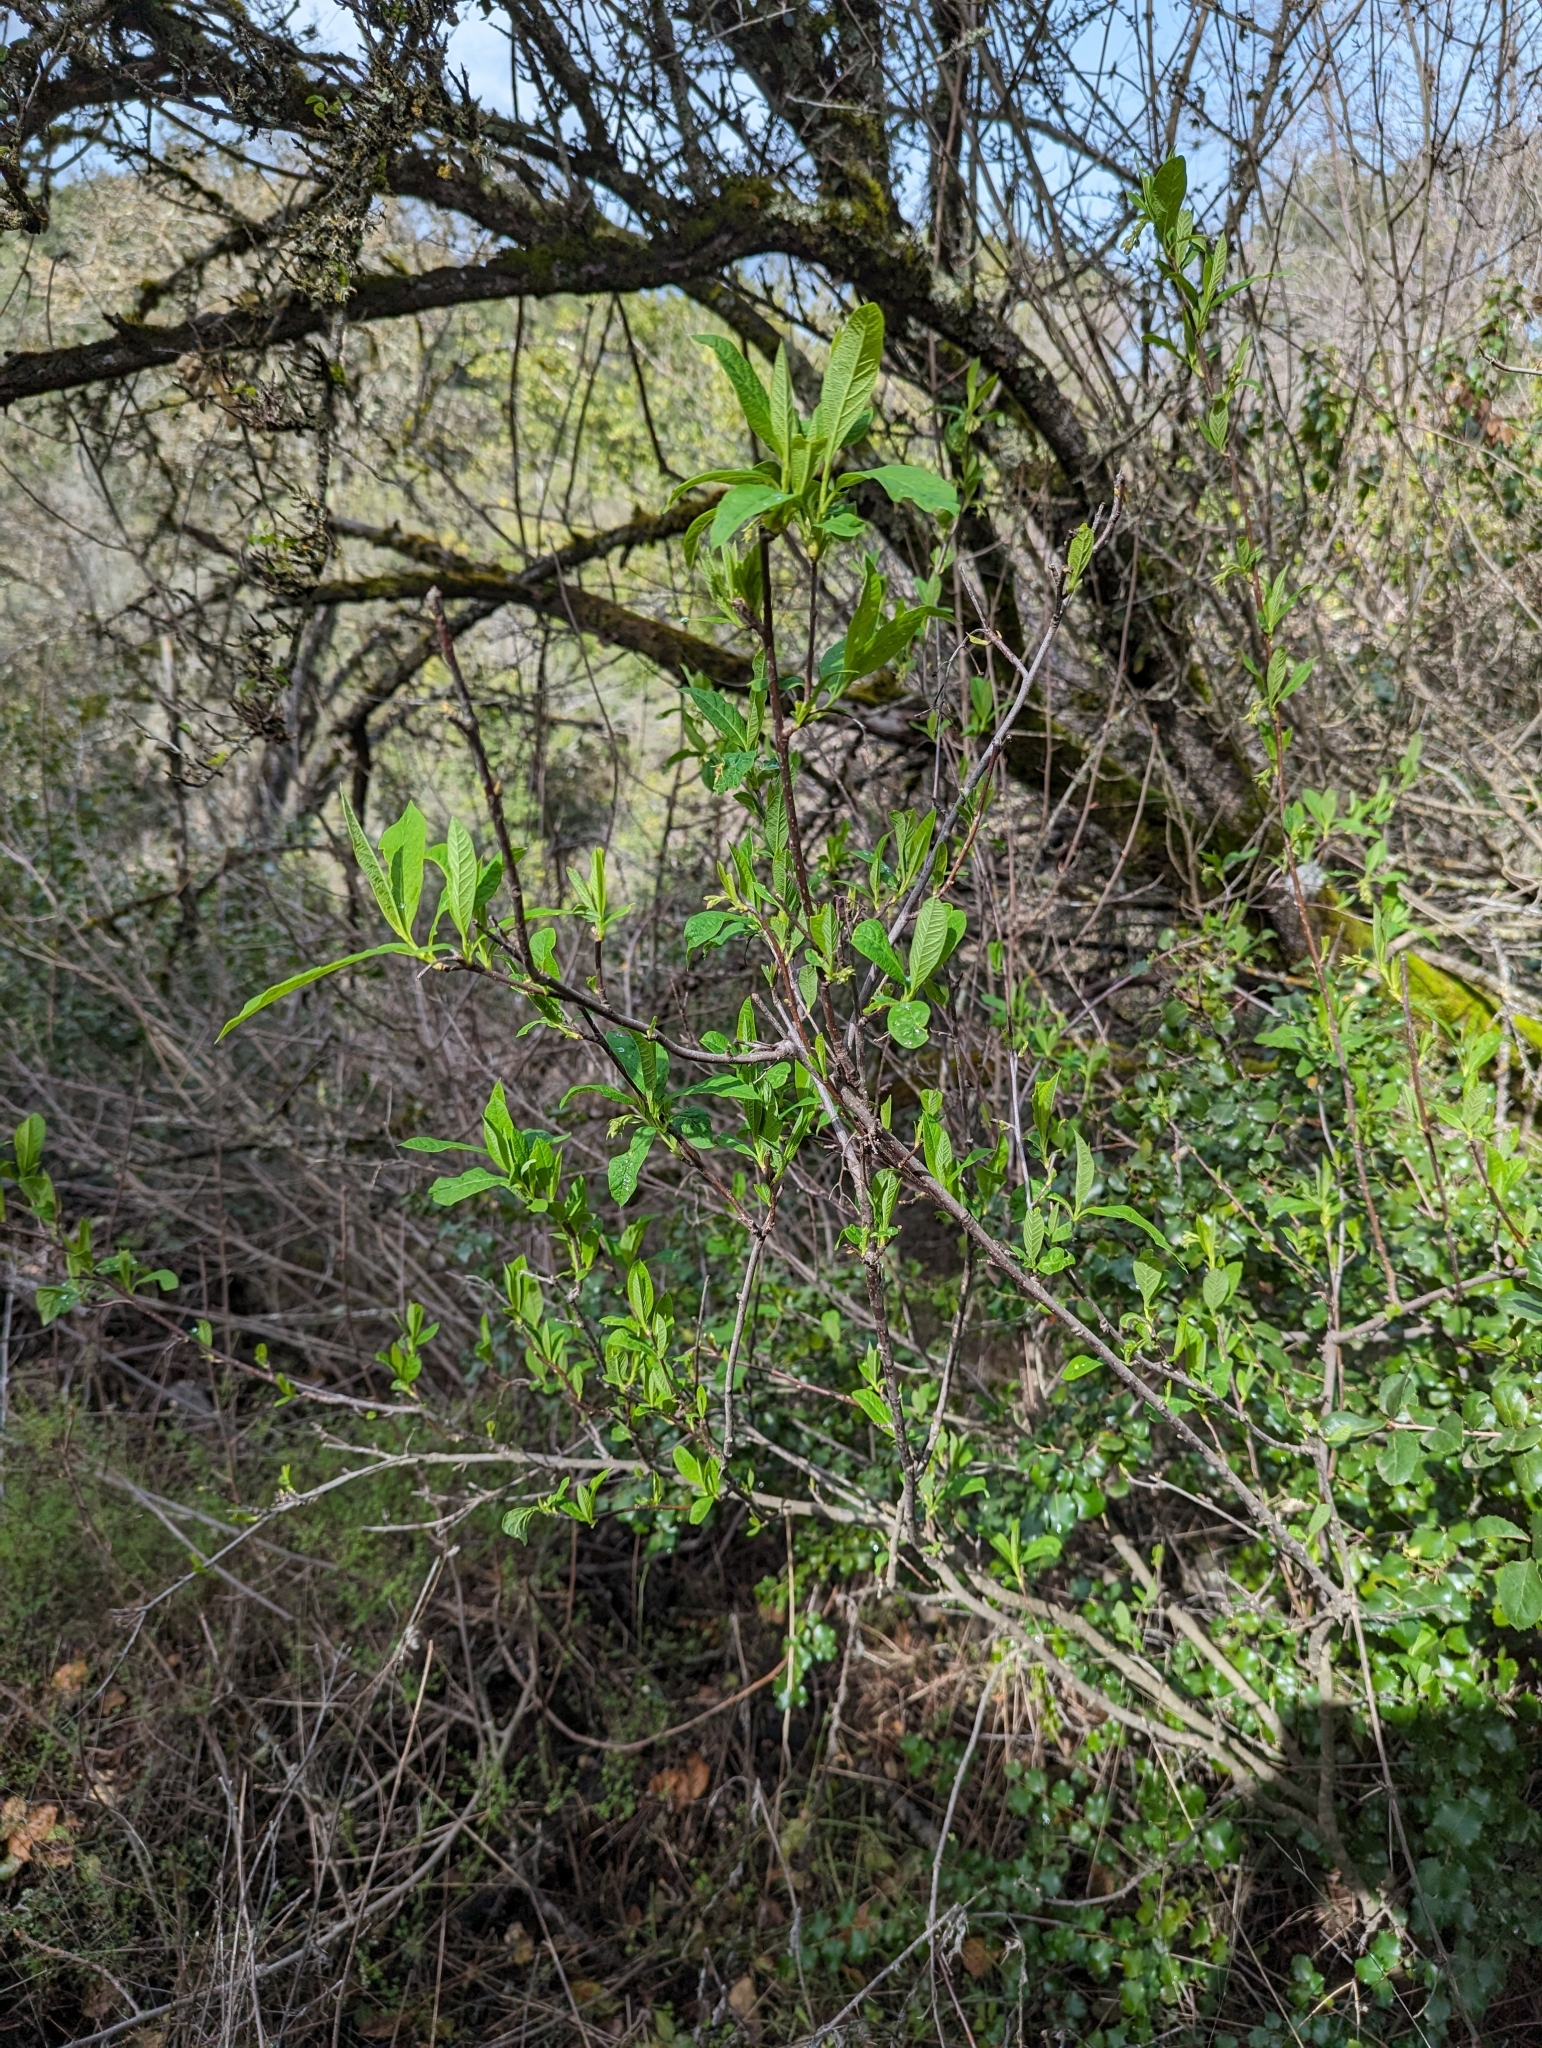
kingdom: Plantae
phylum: Tracheophyta
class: Magnoliopsida
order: Rosales
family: Rosaceae
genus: Oemleria
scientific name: Oemleria cerasiformis
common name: Osoberry
